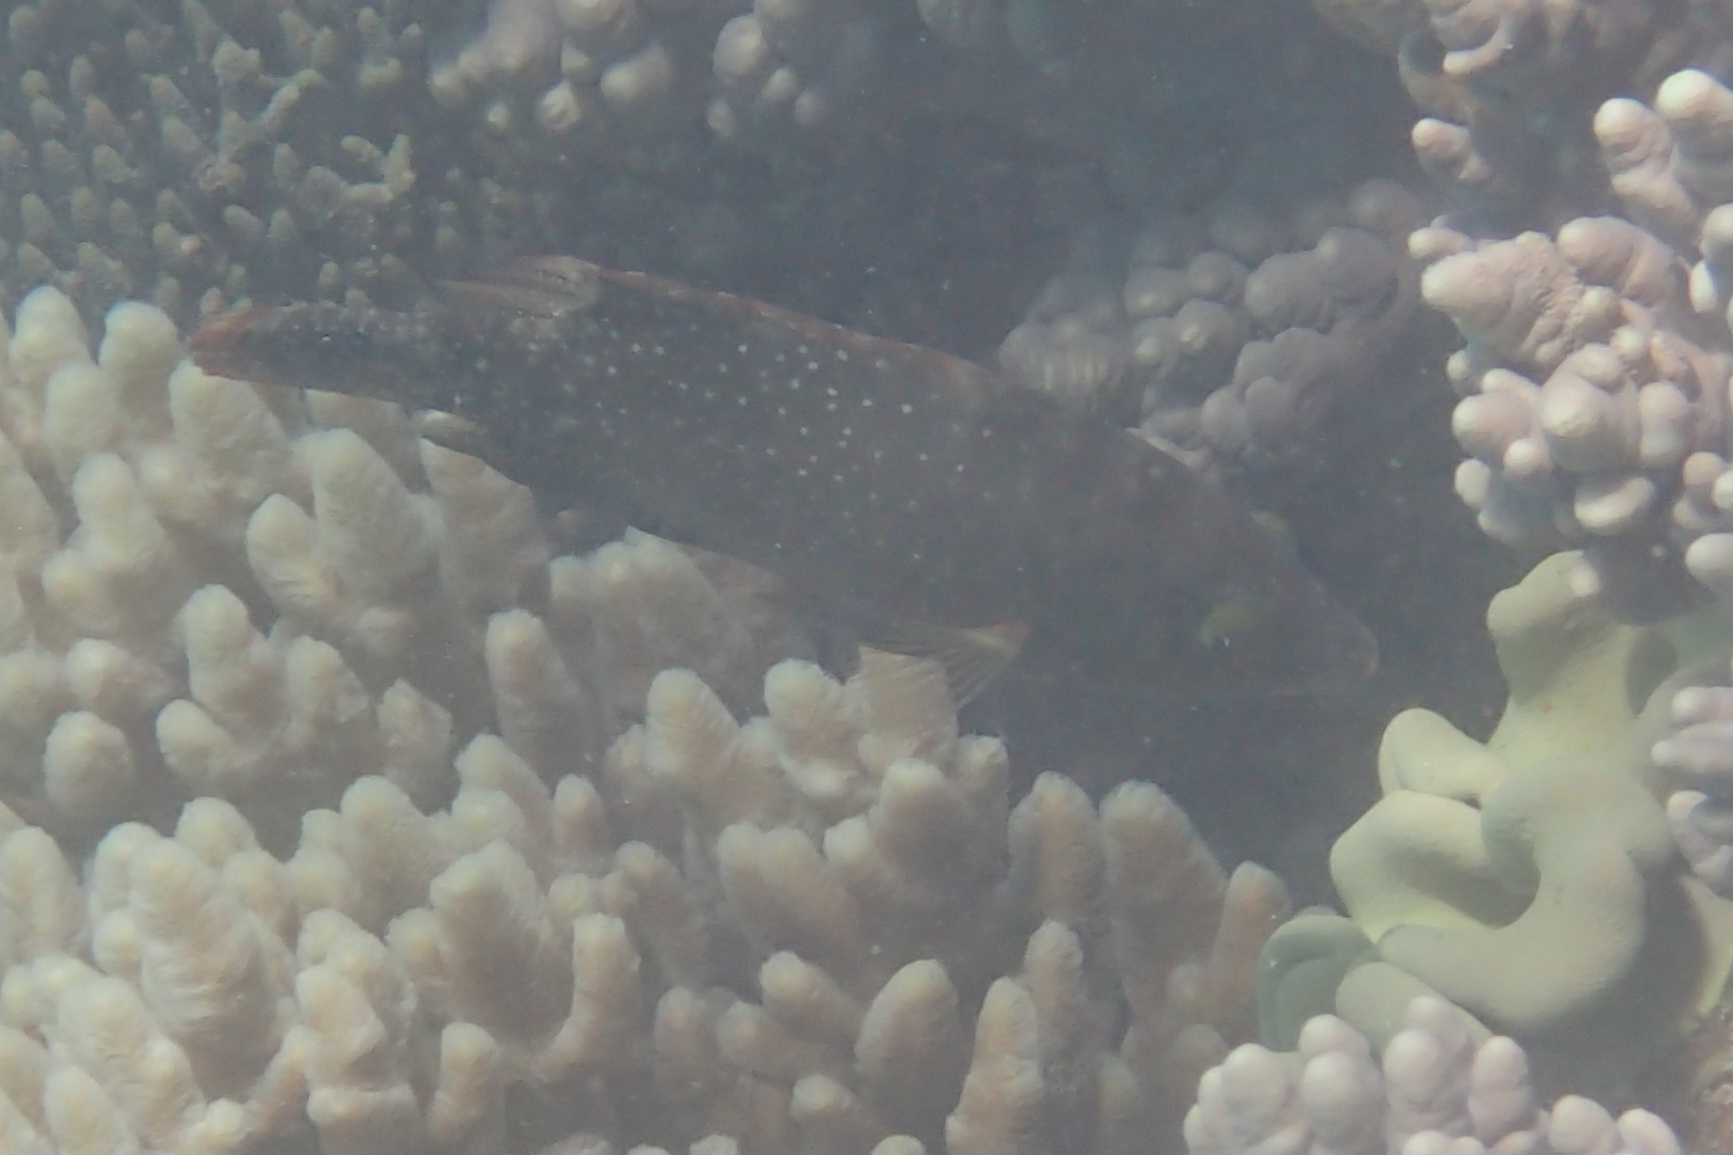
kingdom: Animalia
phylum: Chordata
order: Perciformes
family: Labridae
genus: Cheilinus
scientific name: Cheilinus chlorourus
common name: Floral wrasse
